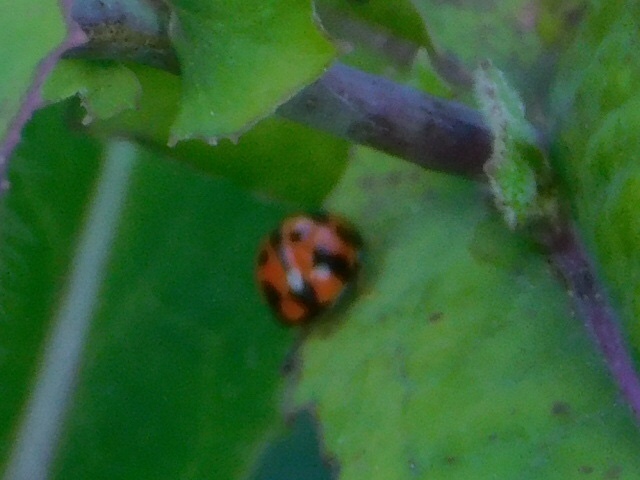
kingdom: Animalia
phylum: Arthropoda
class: Insecta
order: Coleoptera
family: Coccinellidae
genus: Coelophora
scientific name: Coelophora inaequalis
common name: Common australian lady beetle
